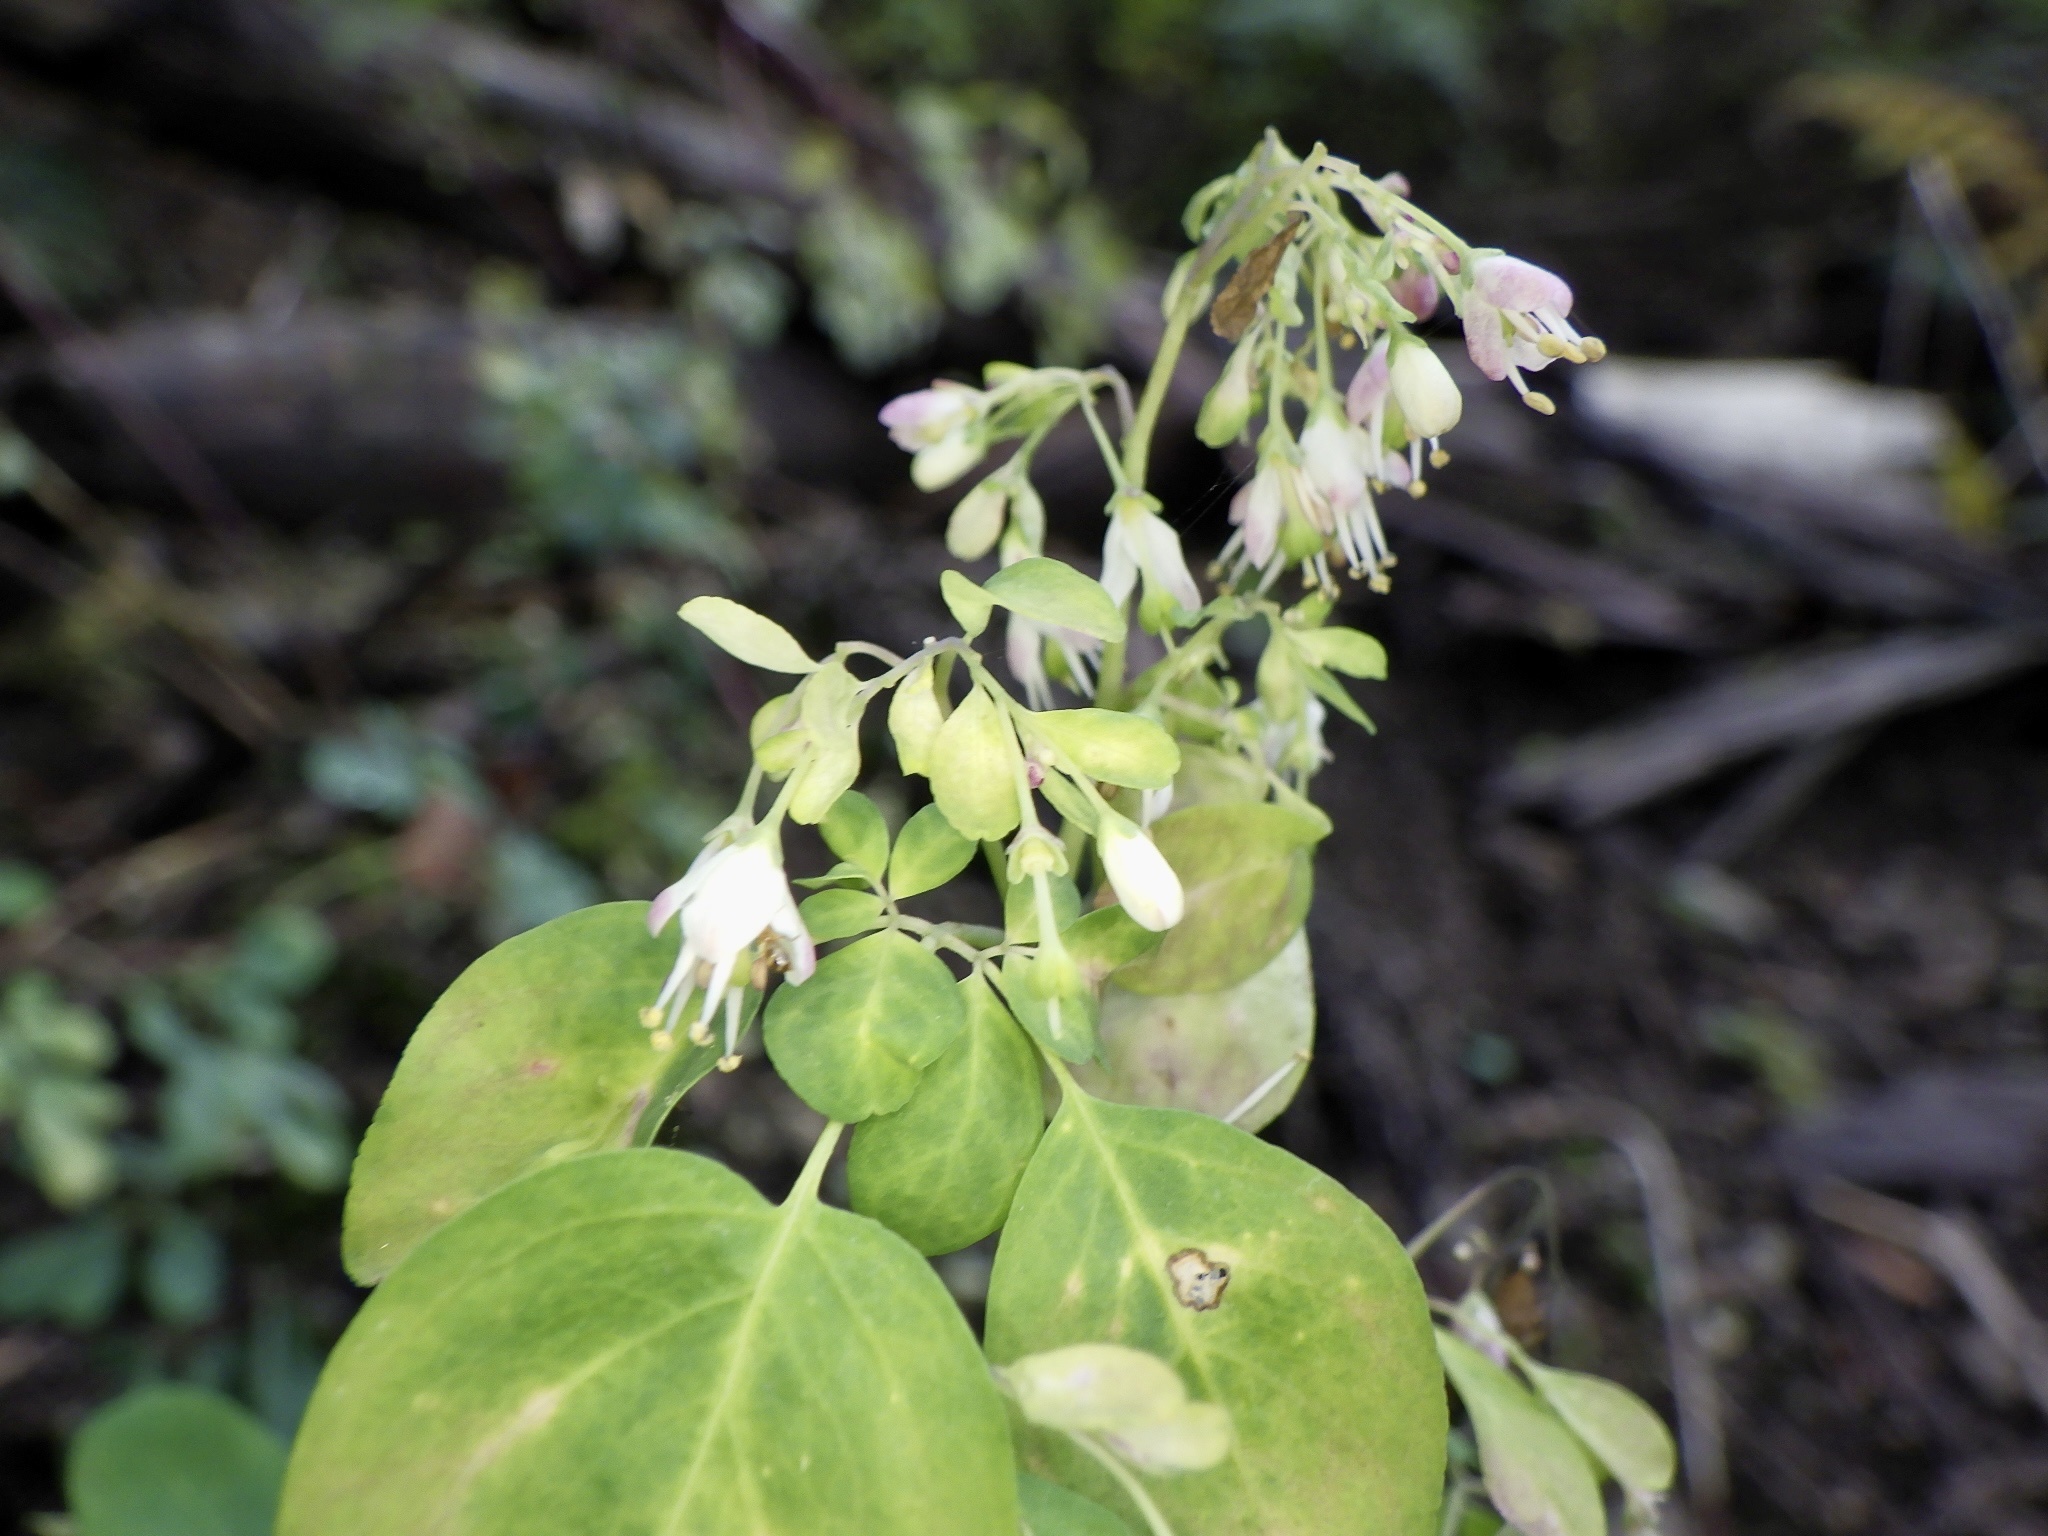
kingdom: Plantae
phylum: Tracheophyta
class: Magnoliopsida
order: Sapindales
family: Rutaceae
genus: Boenninghausenia
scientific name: Boenninghausenia albiflora
